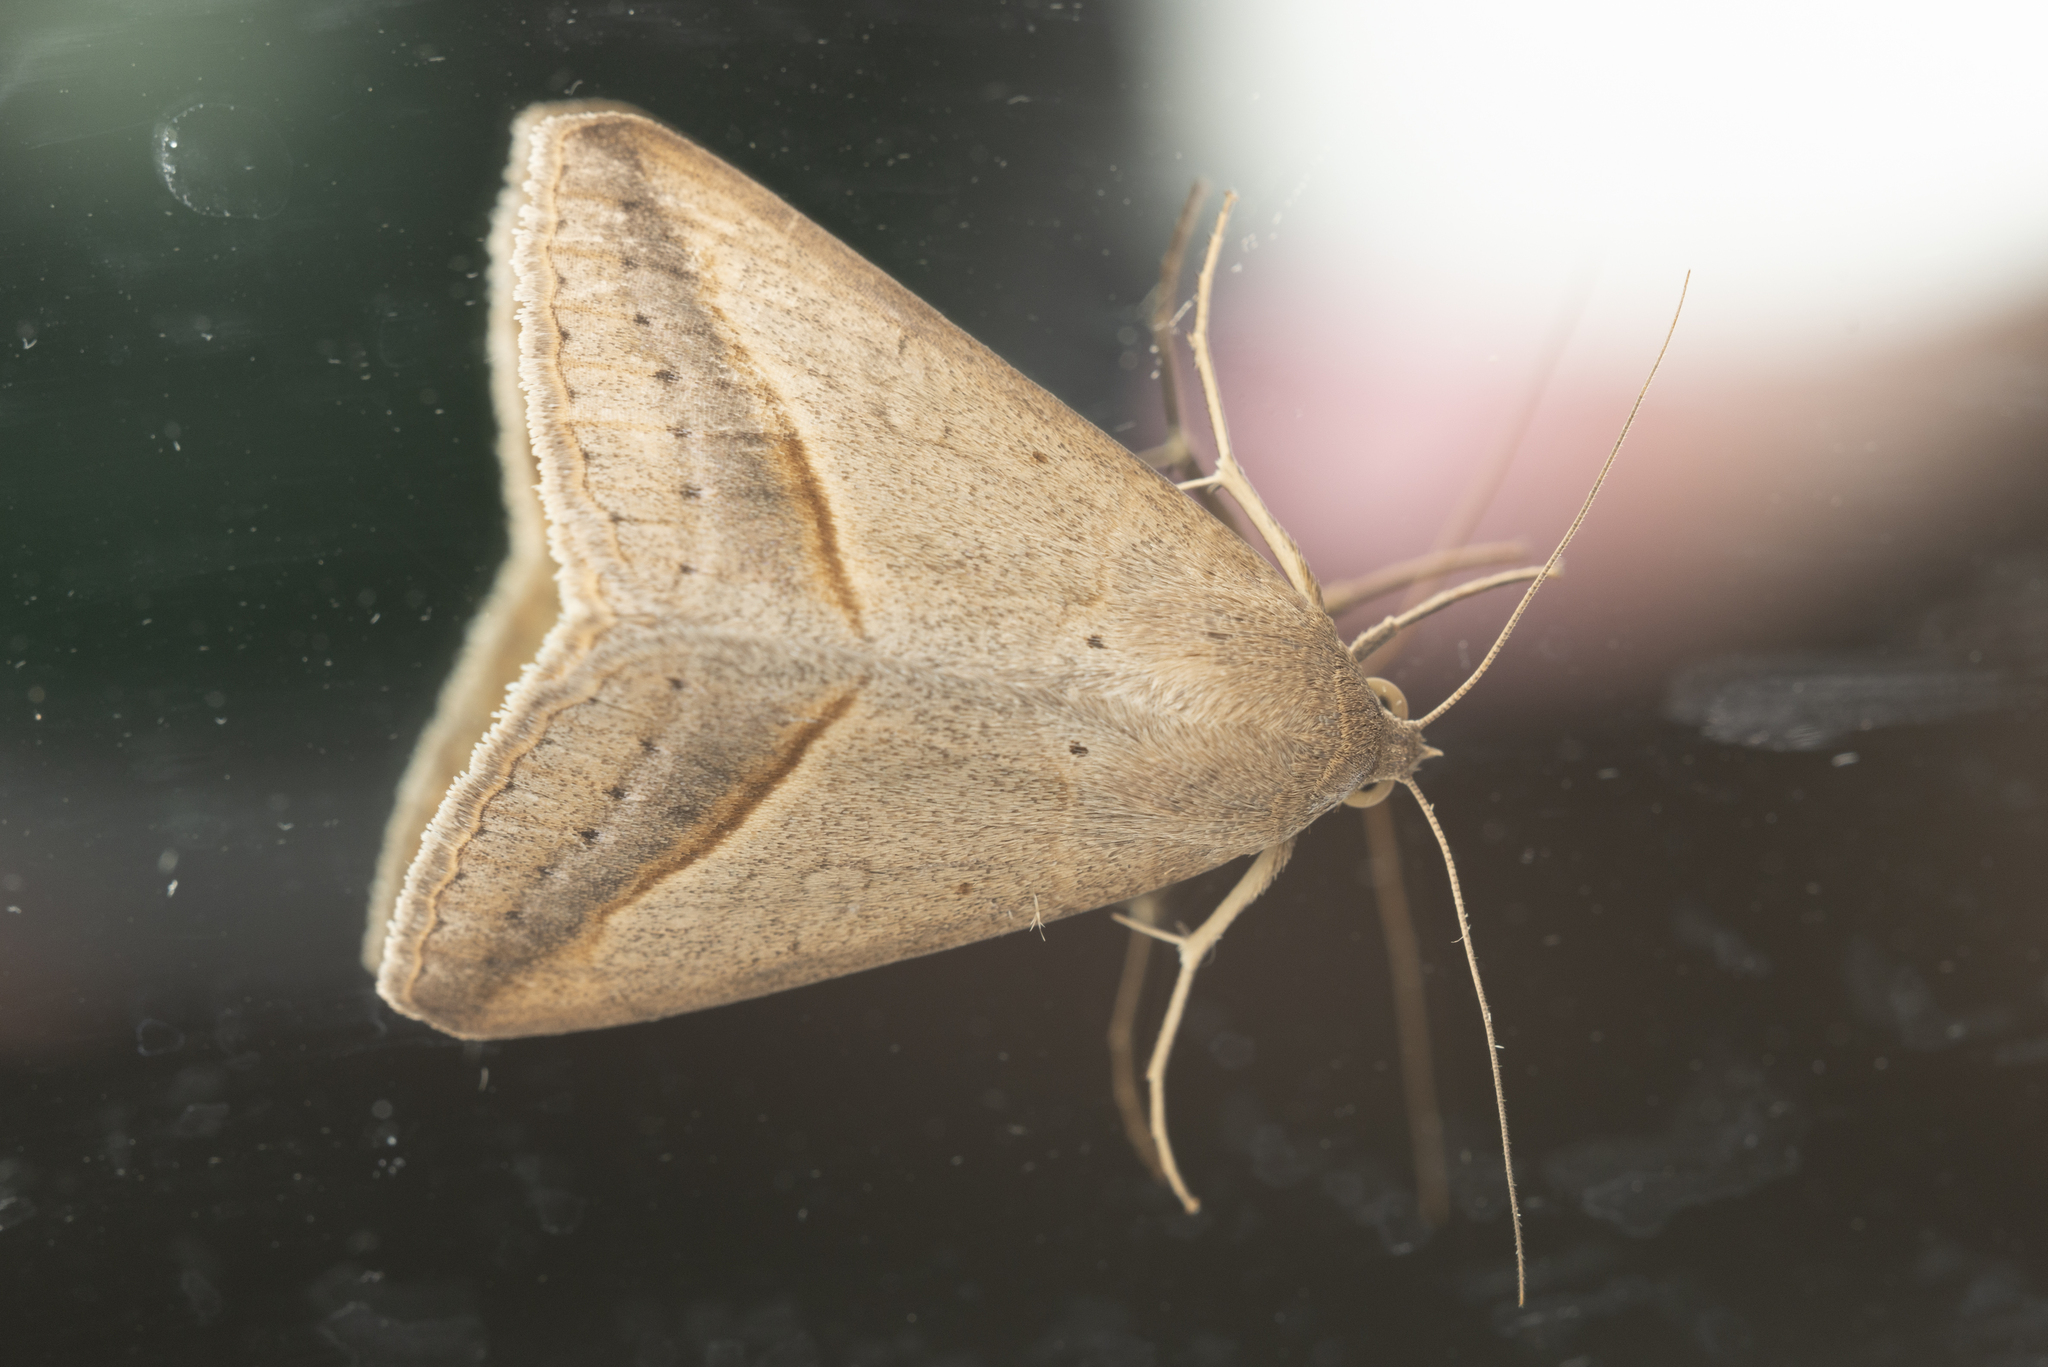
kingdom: Animalia
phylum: Arthropoda
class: Insecta
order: Lepidoptera
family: Erebidae
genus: Mocis
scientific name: Mocis frugalis
